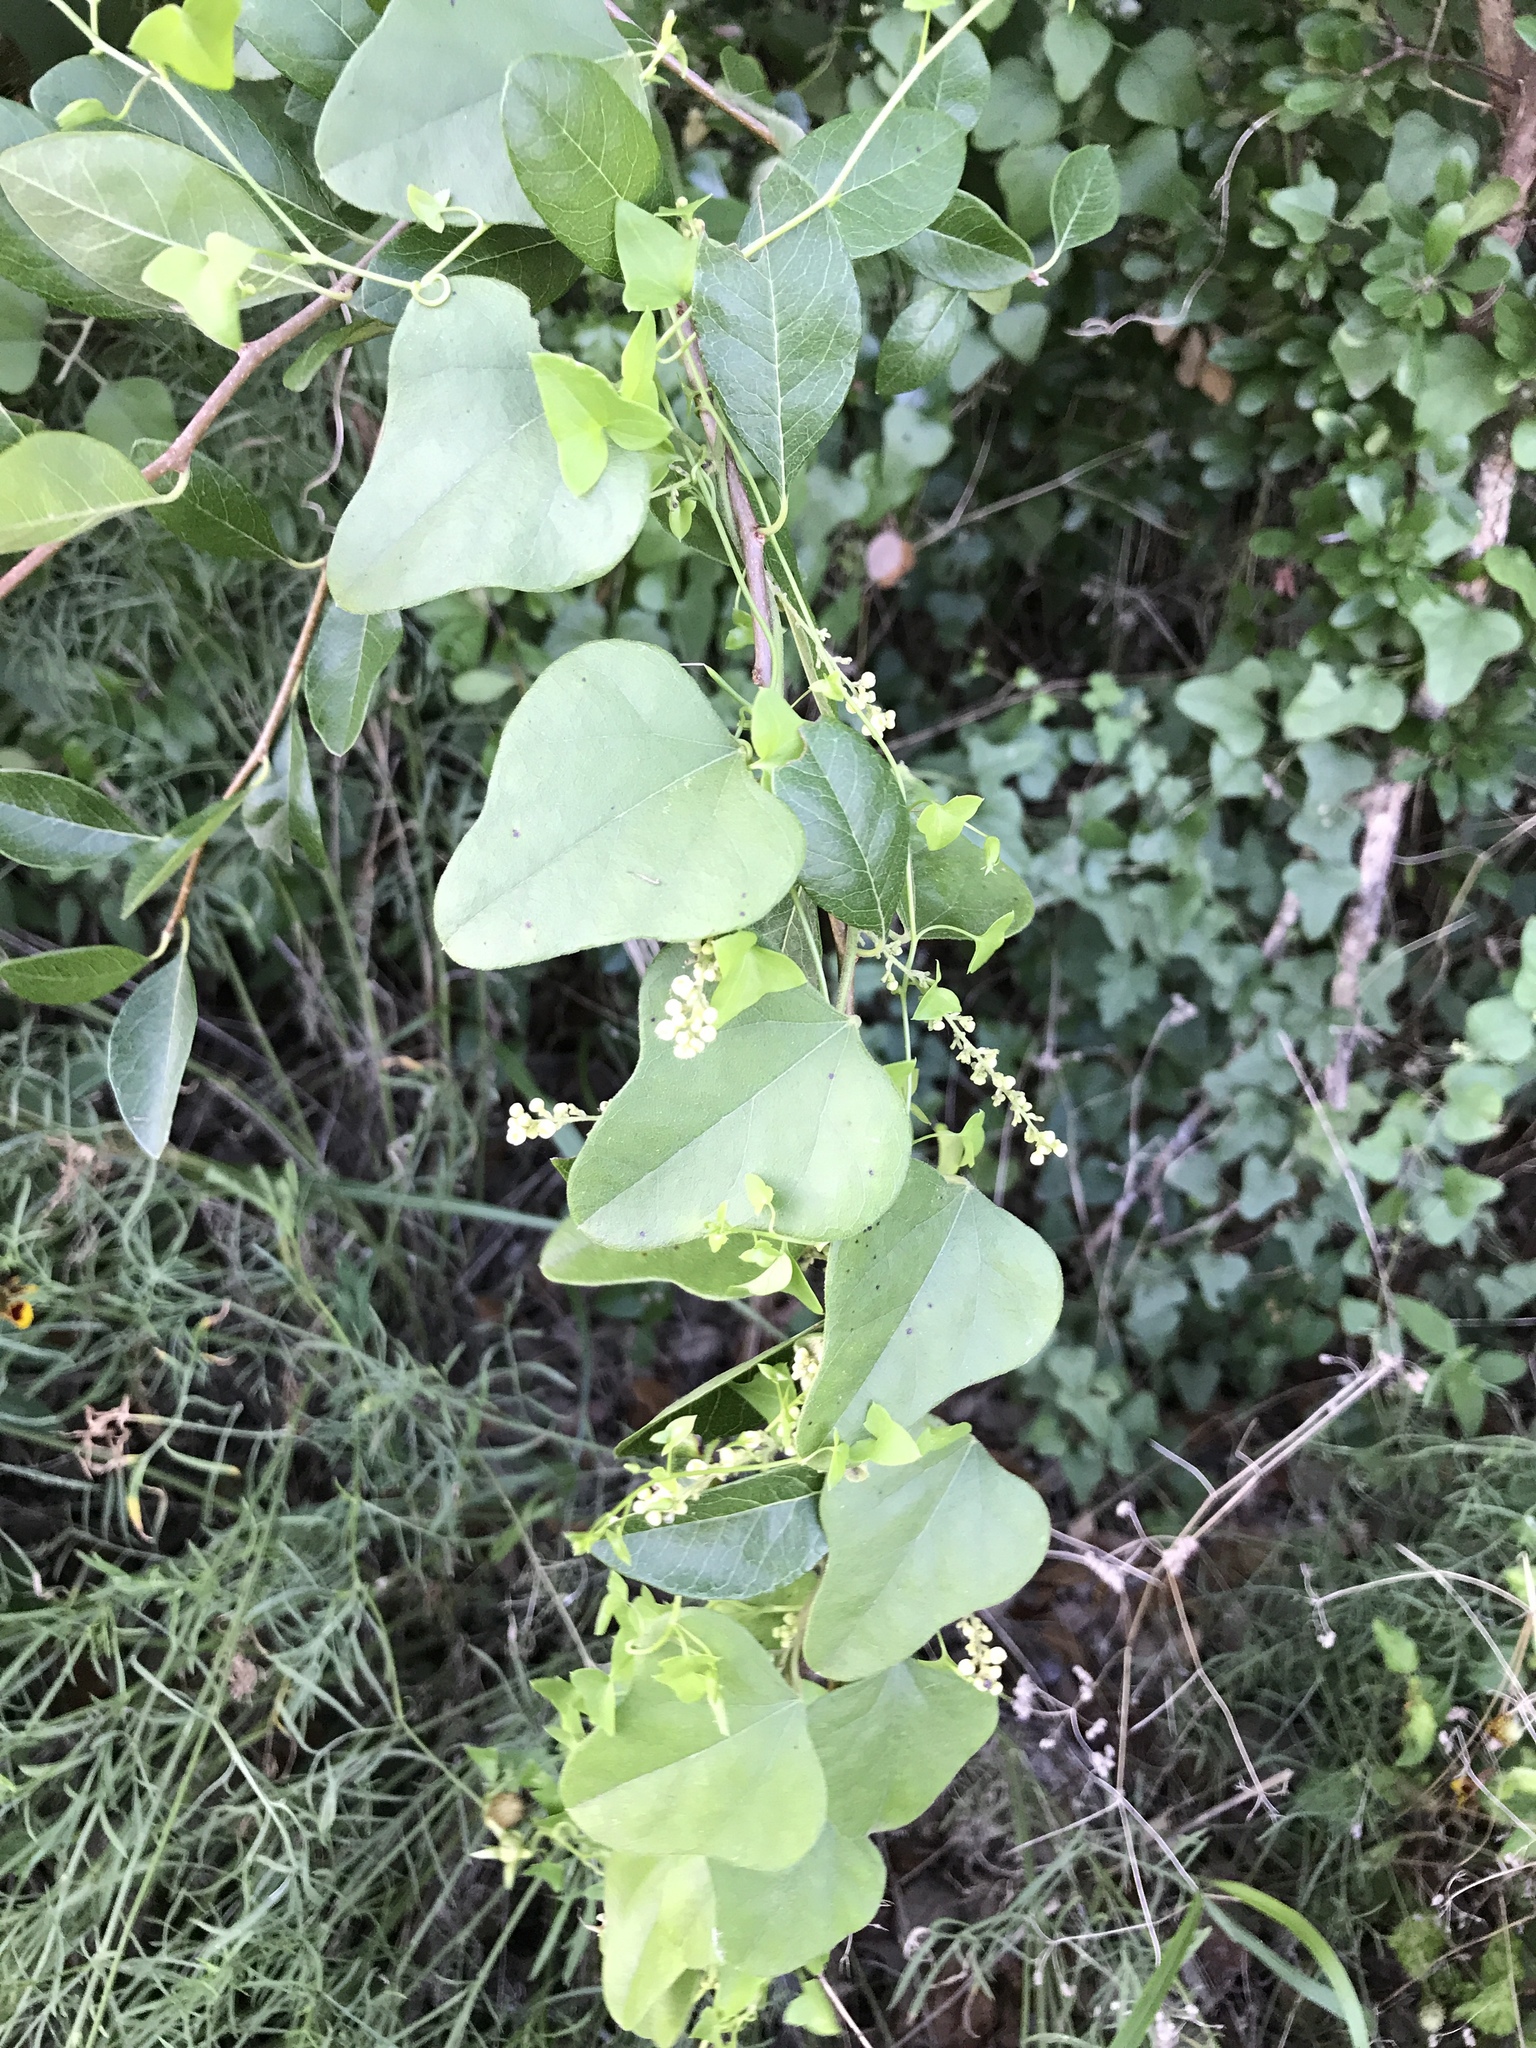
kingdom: Plantae
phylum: Tracheophyta
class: Magnoliopsida
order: Ranunculales
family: Menispermaceae
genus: Cocculus
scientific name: Cocculus carolinus
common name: Carolina moonseed
